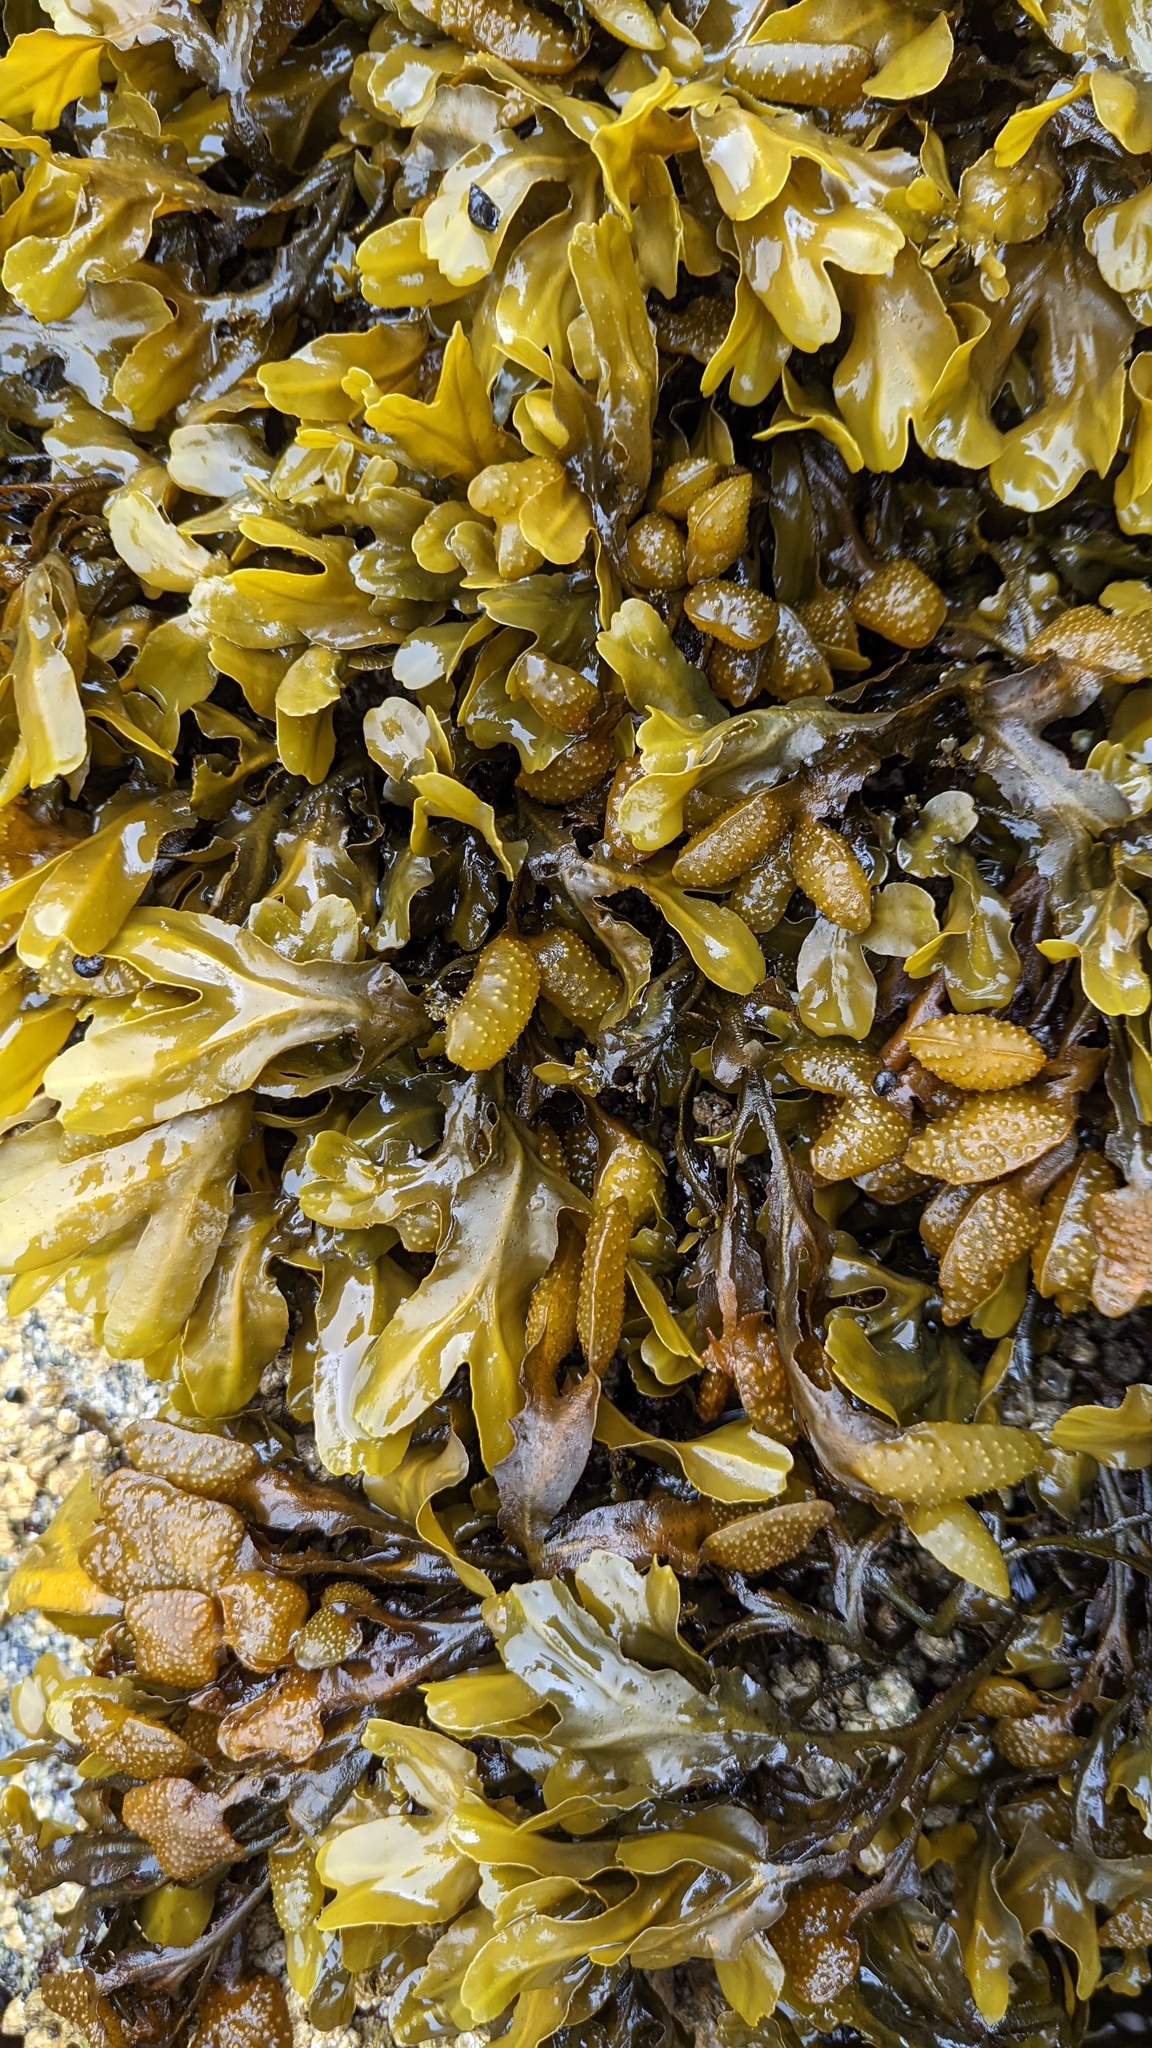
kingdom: Chromista
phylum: Ochrophyta
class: Phaeophyceae
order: Fucales
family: Fucaceae
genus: Fucus
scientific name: Fucus distichus
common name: Rockweed
